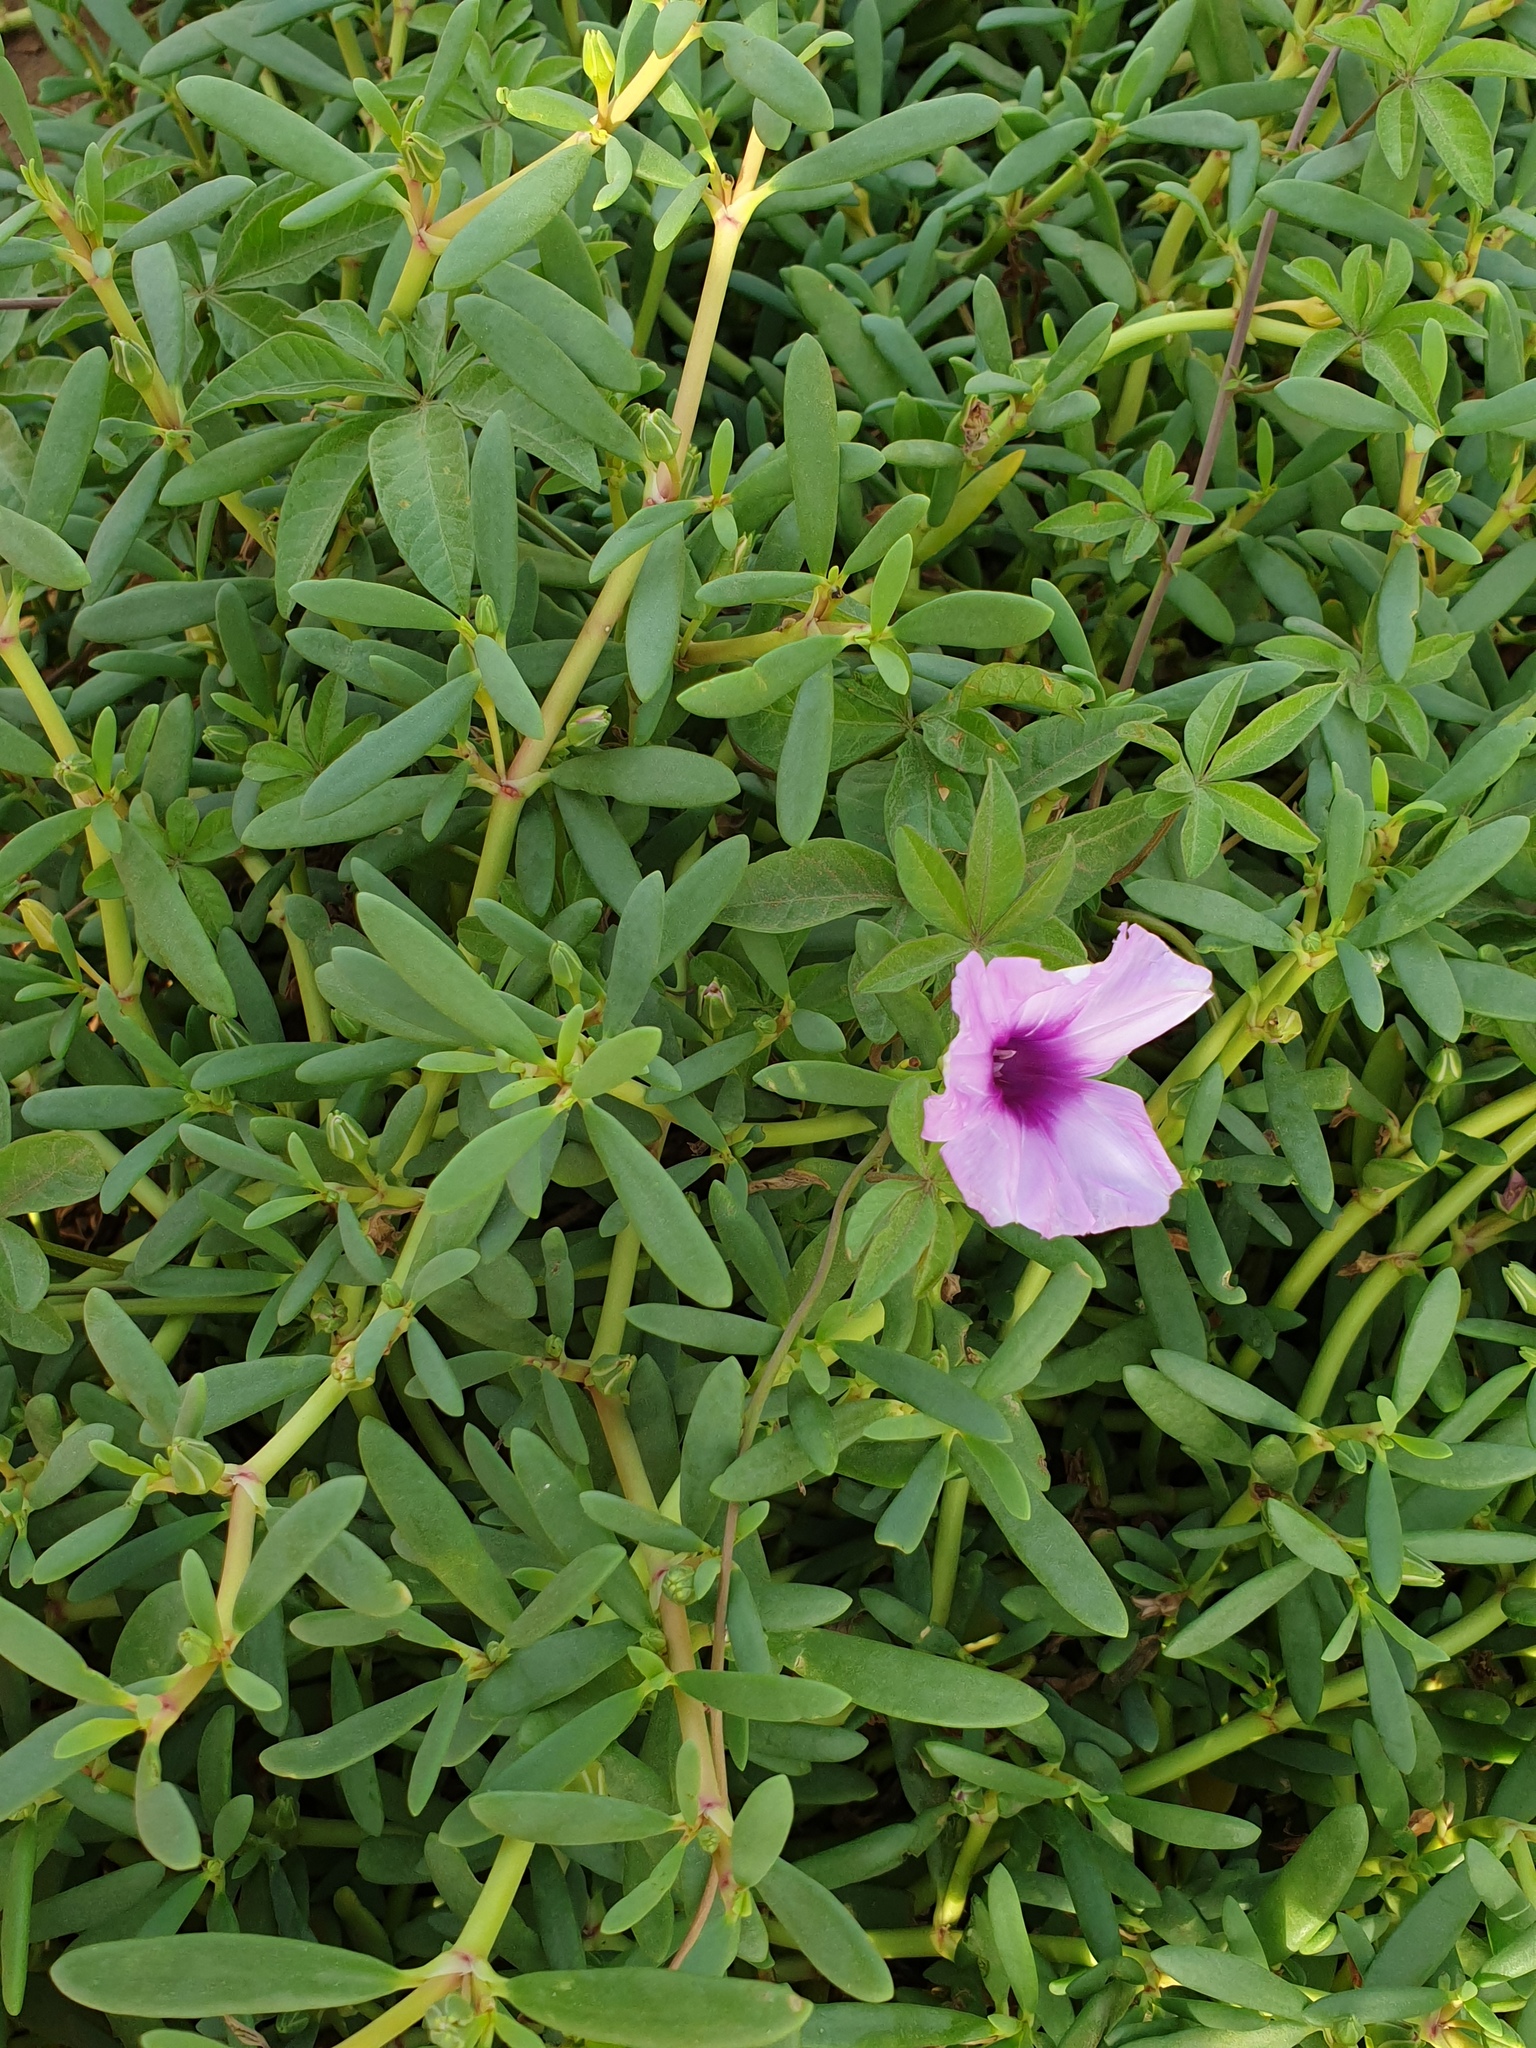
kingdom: Plantae
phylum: Tracheophyta
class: Magnoliopsida
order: Solanales
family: Convolvulaceae
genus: Ipomoea
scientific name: Ipomoea cairica
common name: Mile a minute vine
